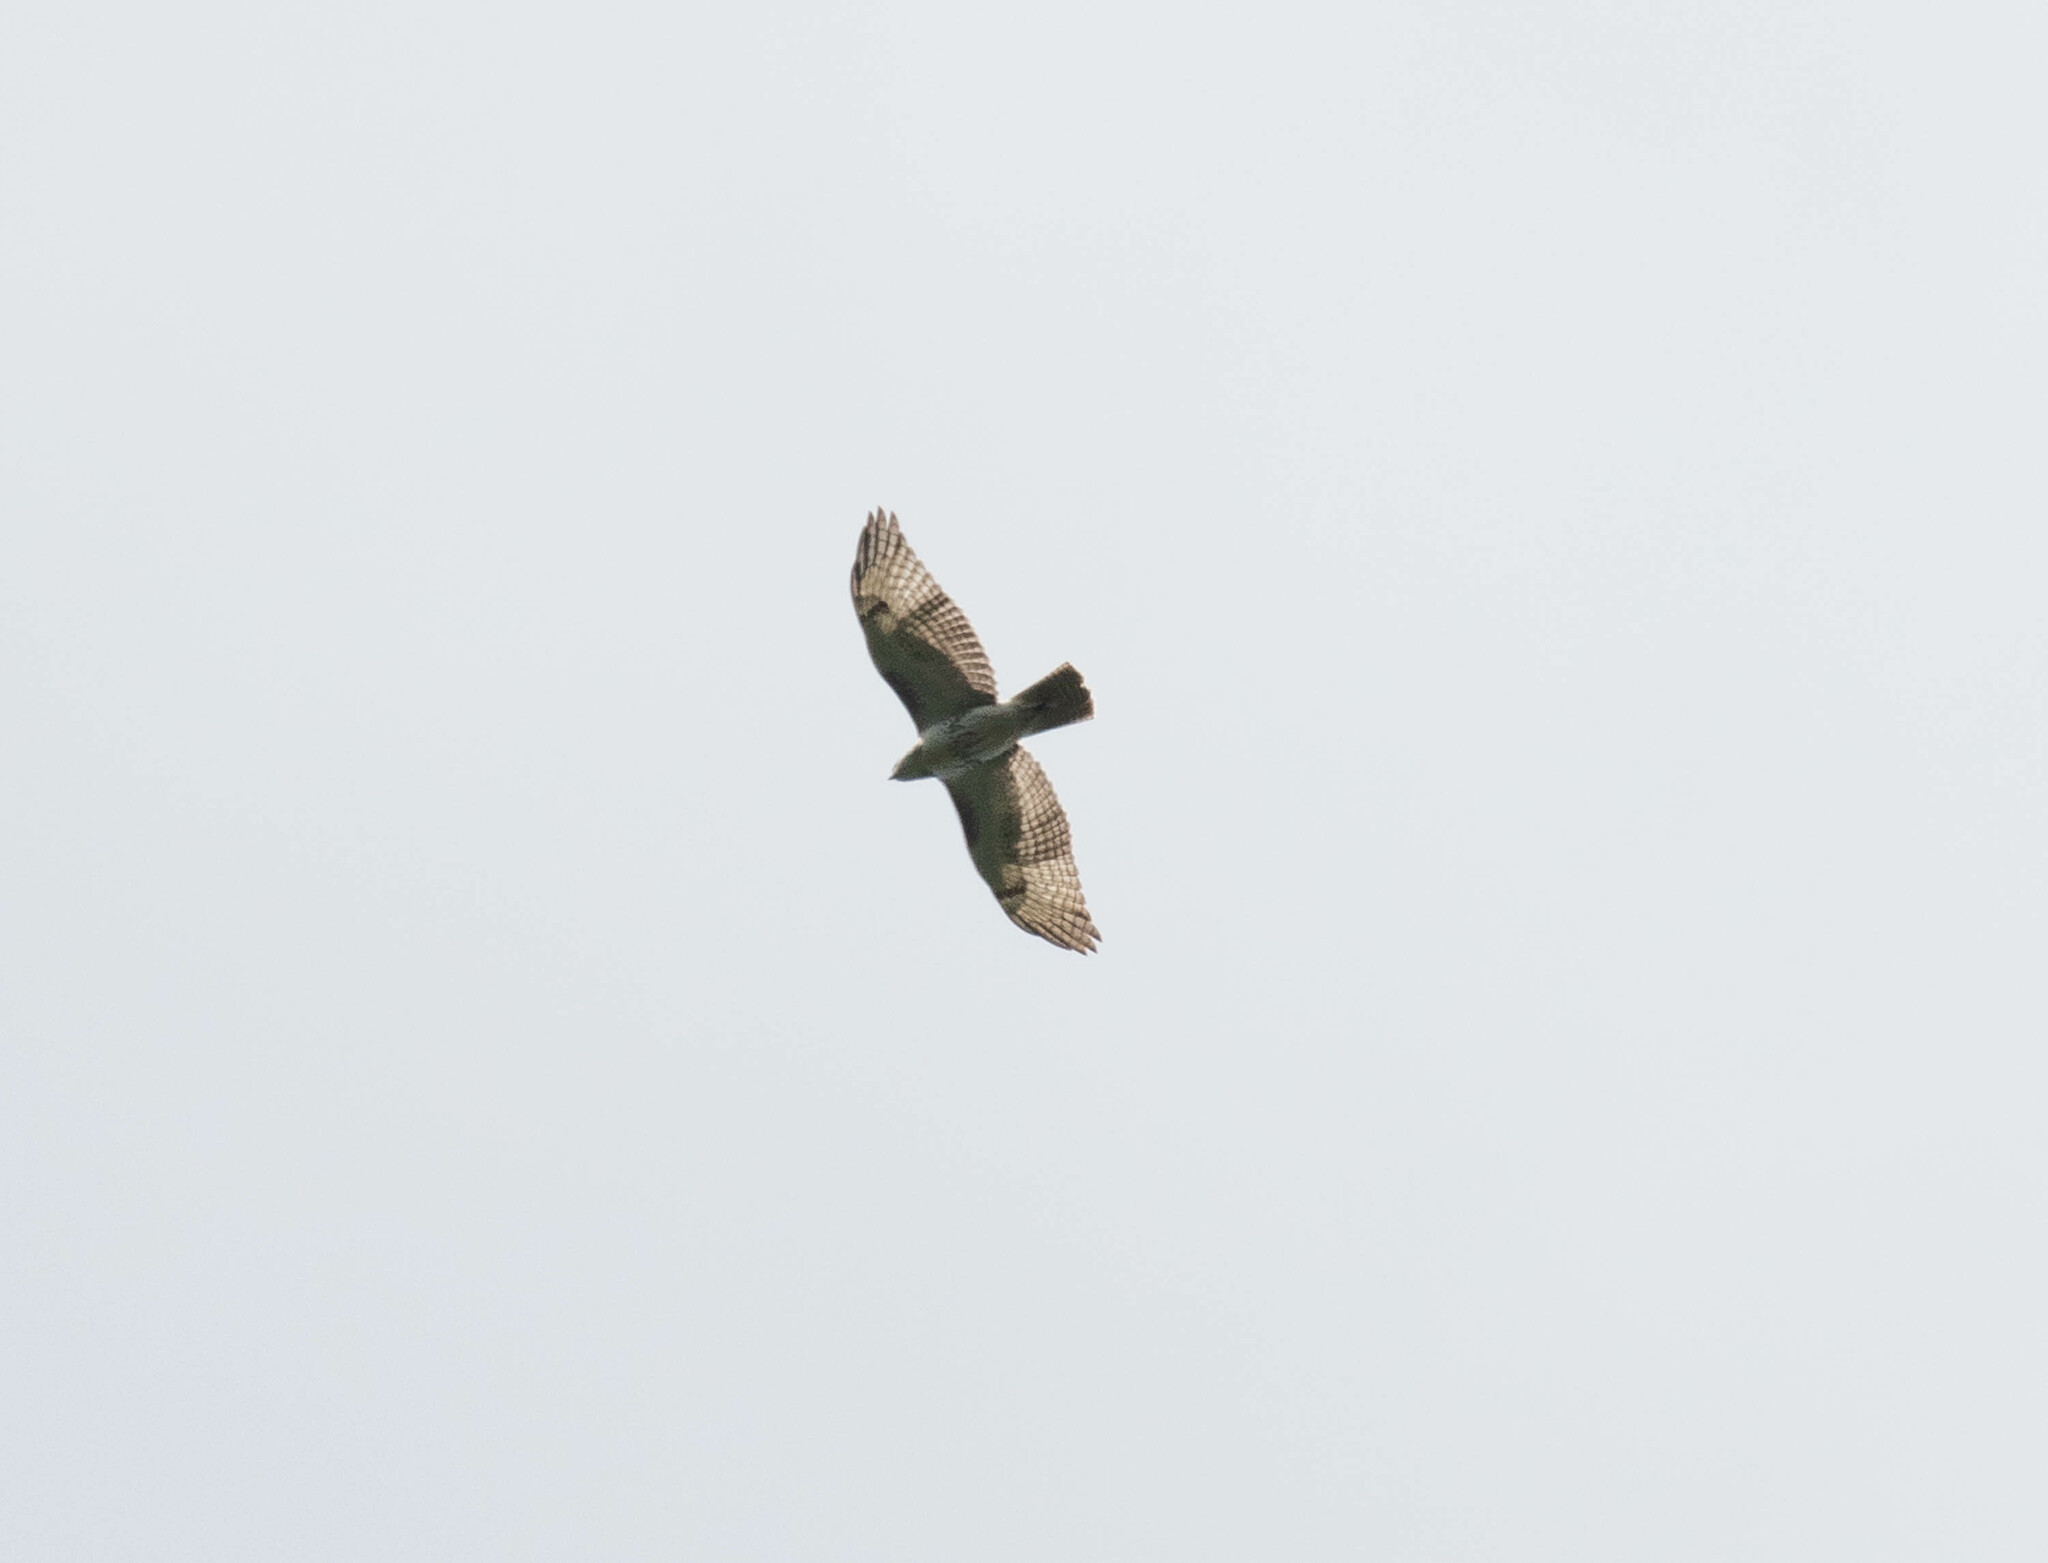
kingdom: Animalia
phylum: Chordata
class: Aves
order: Accipitriformes
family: Accipitridae
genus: Buteo
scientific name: Buteo jamaicensis
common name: Red-tailed hawk
